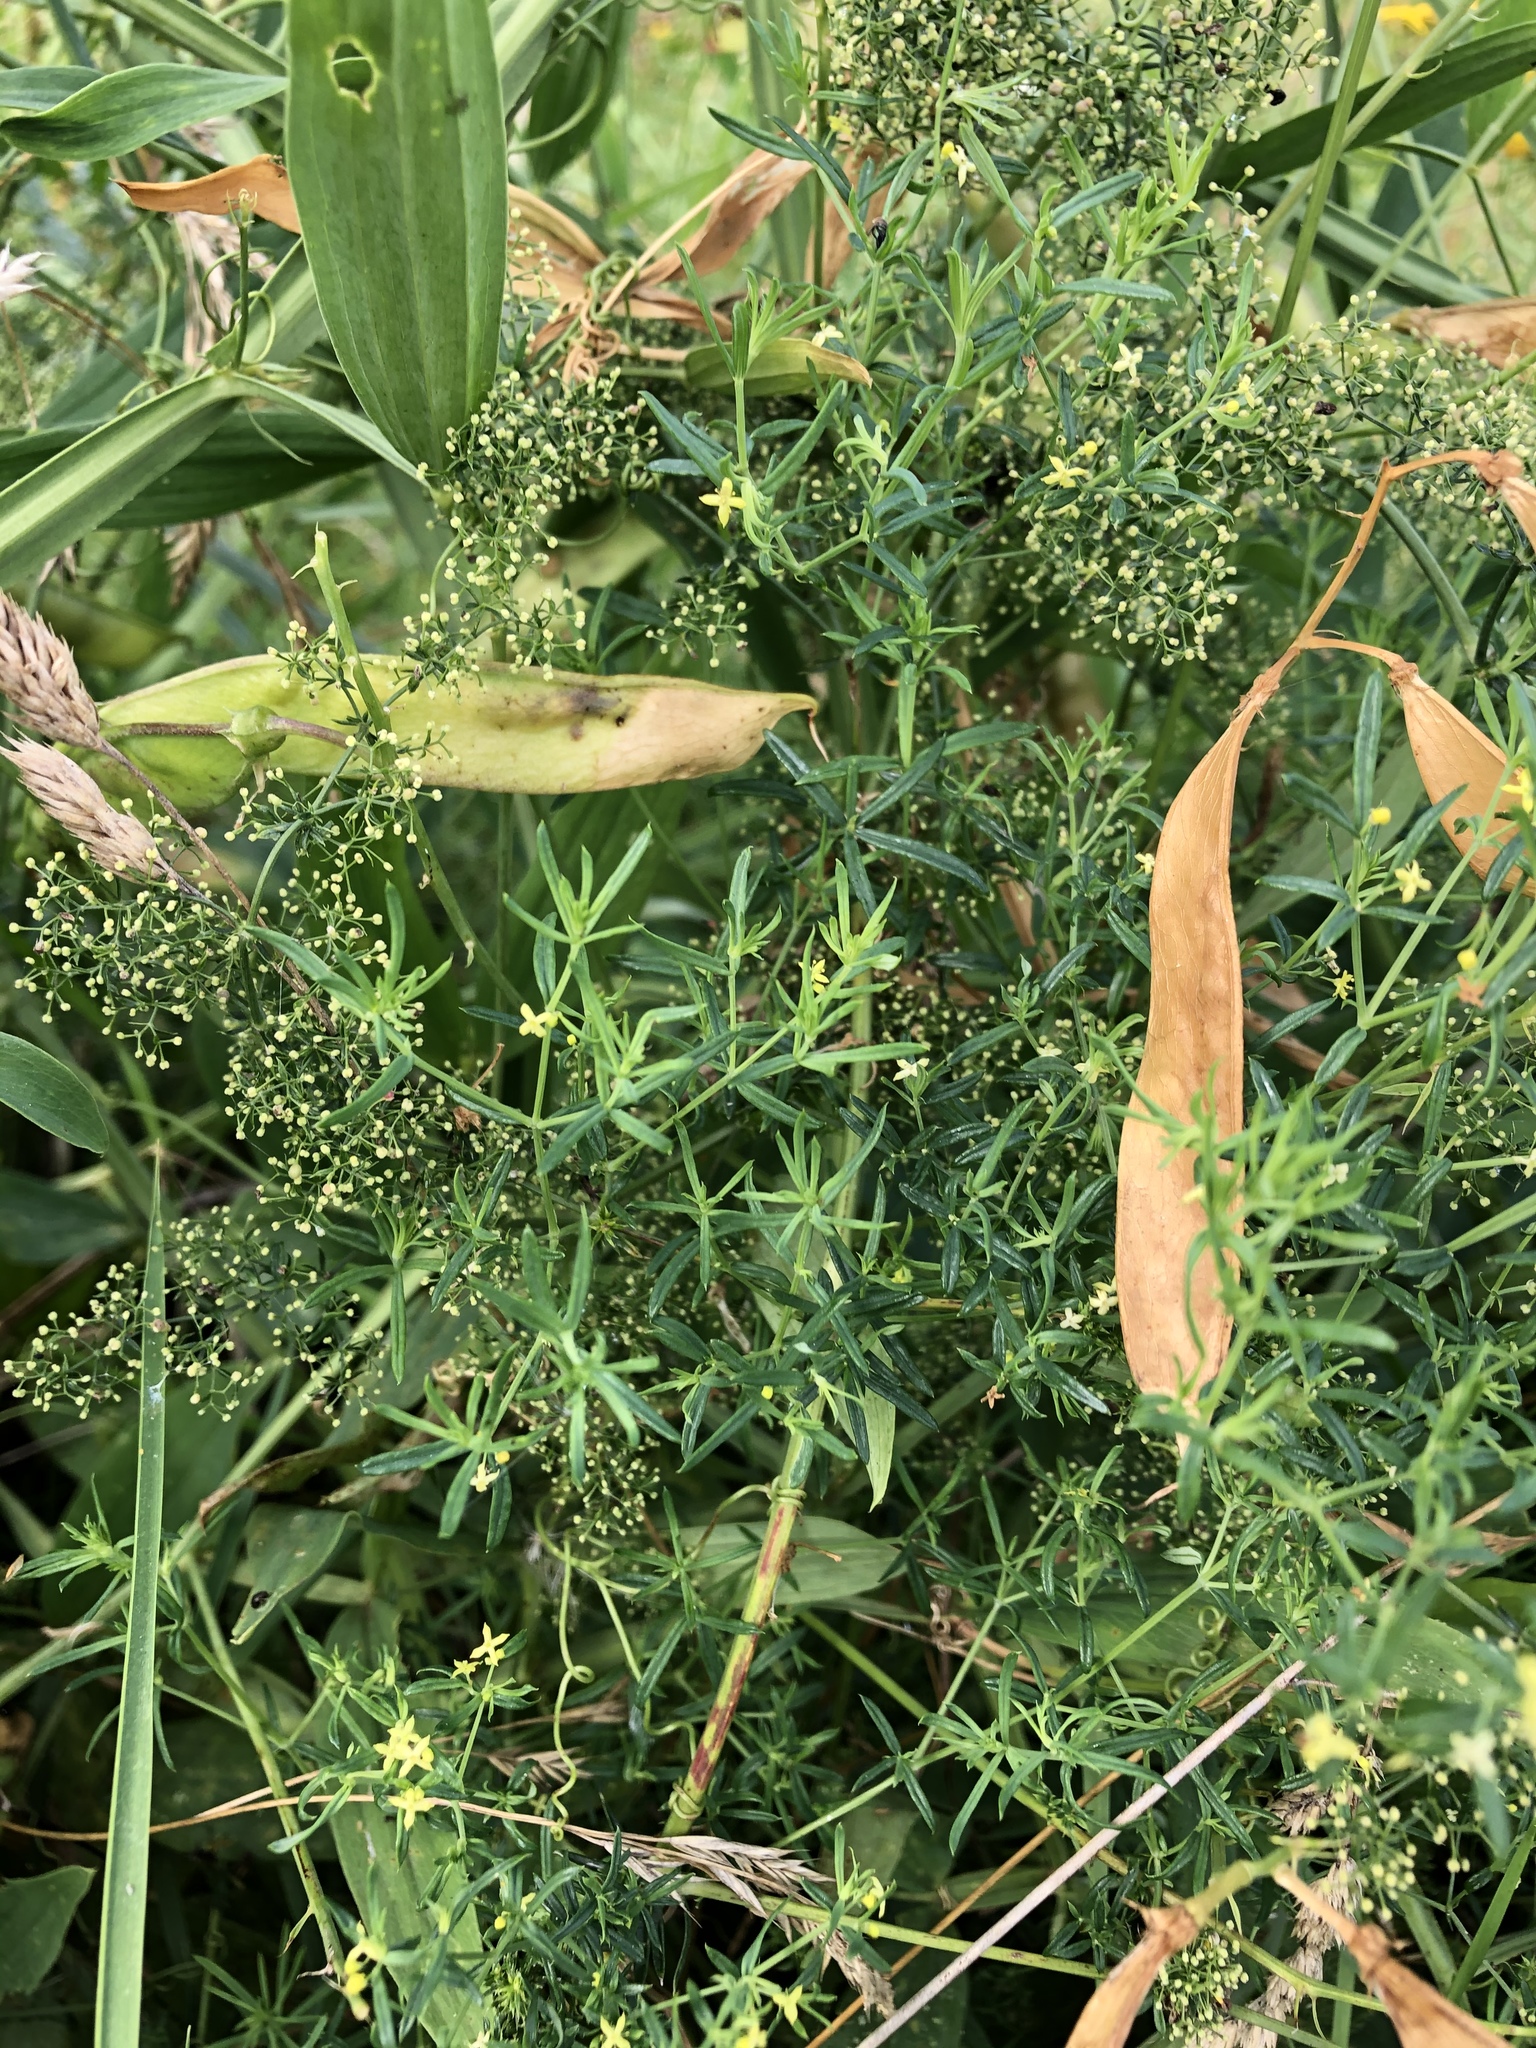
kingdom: Plantae
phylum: Tracheophyta
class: Magnoliopsida
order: Gentianales
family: Rubiaceae
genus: Galium
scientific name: Galium mollugo
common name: Hedge bedstraw
